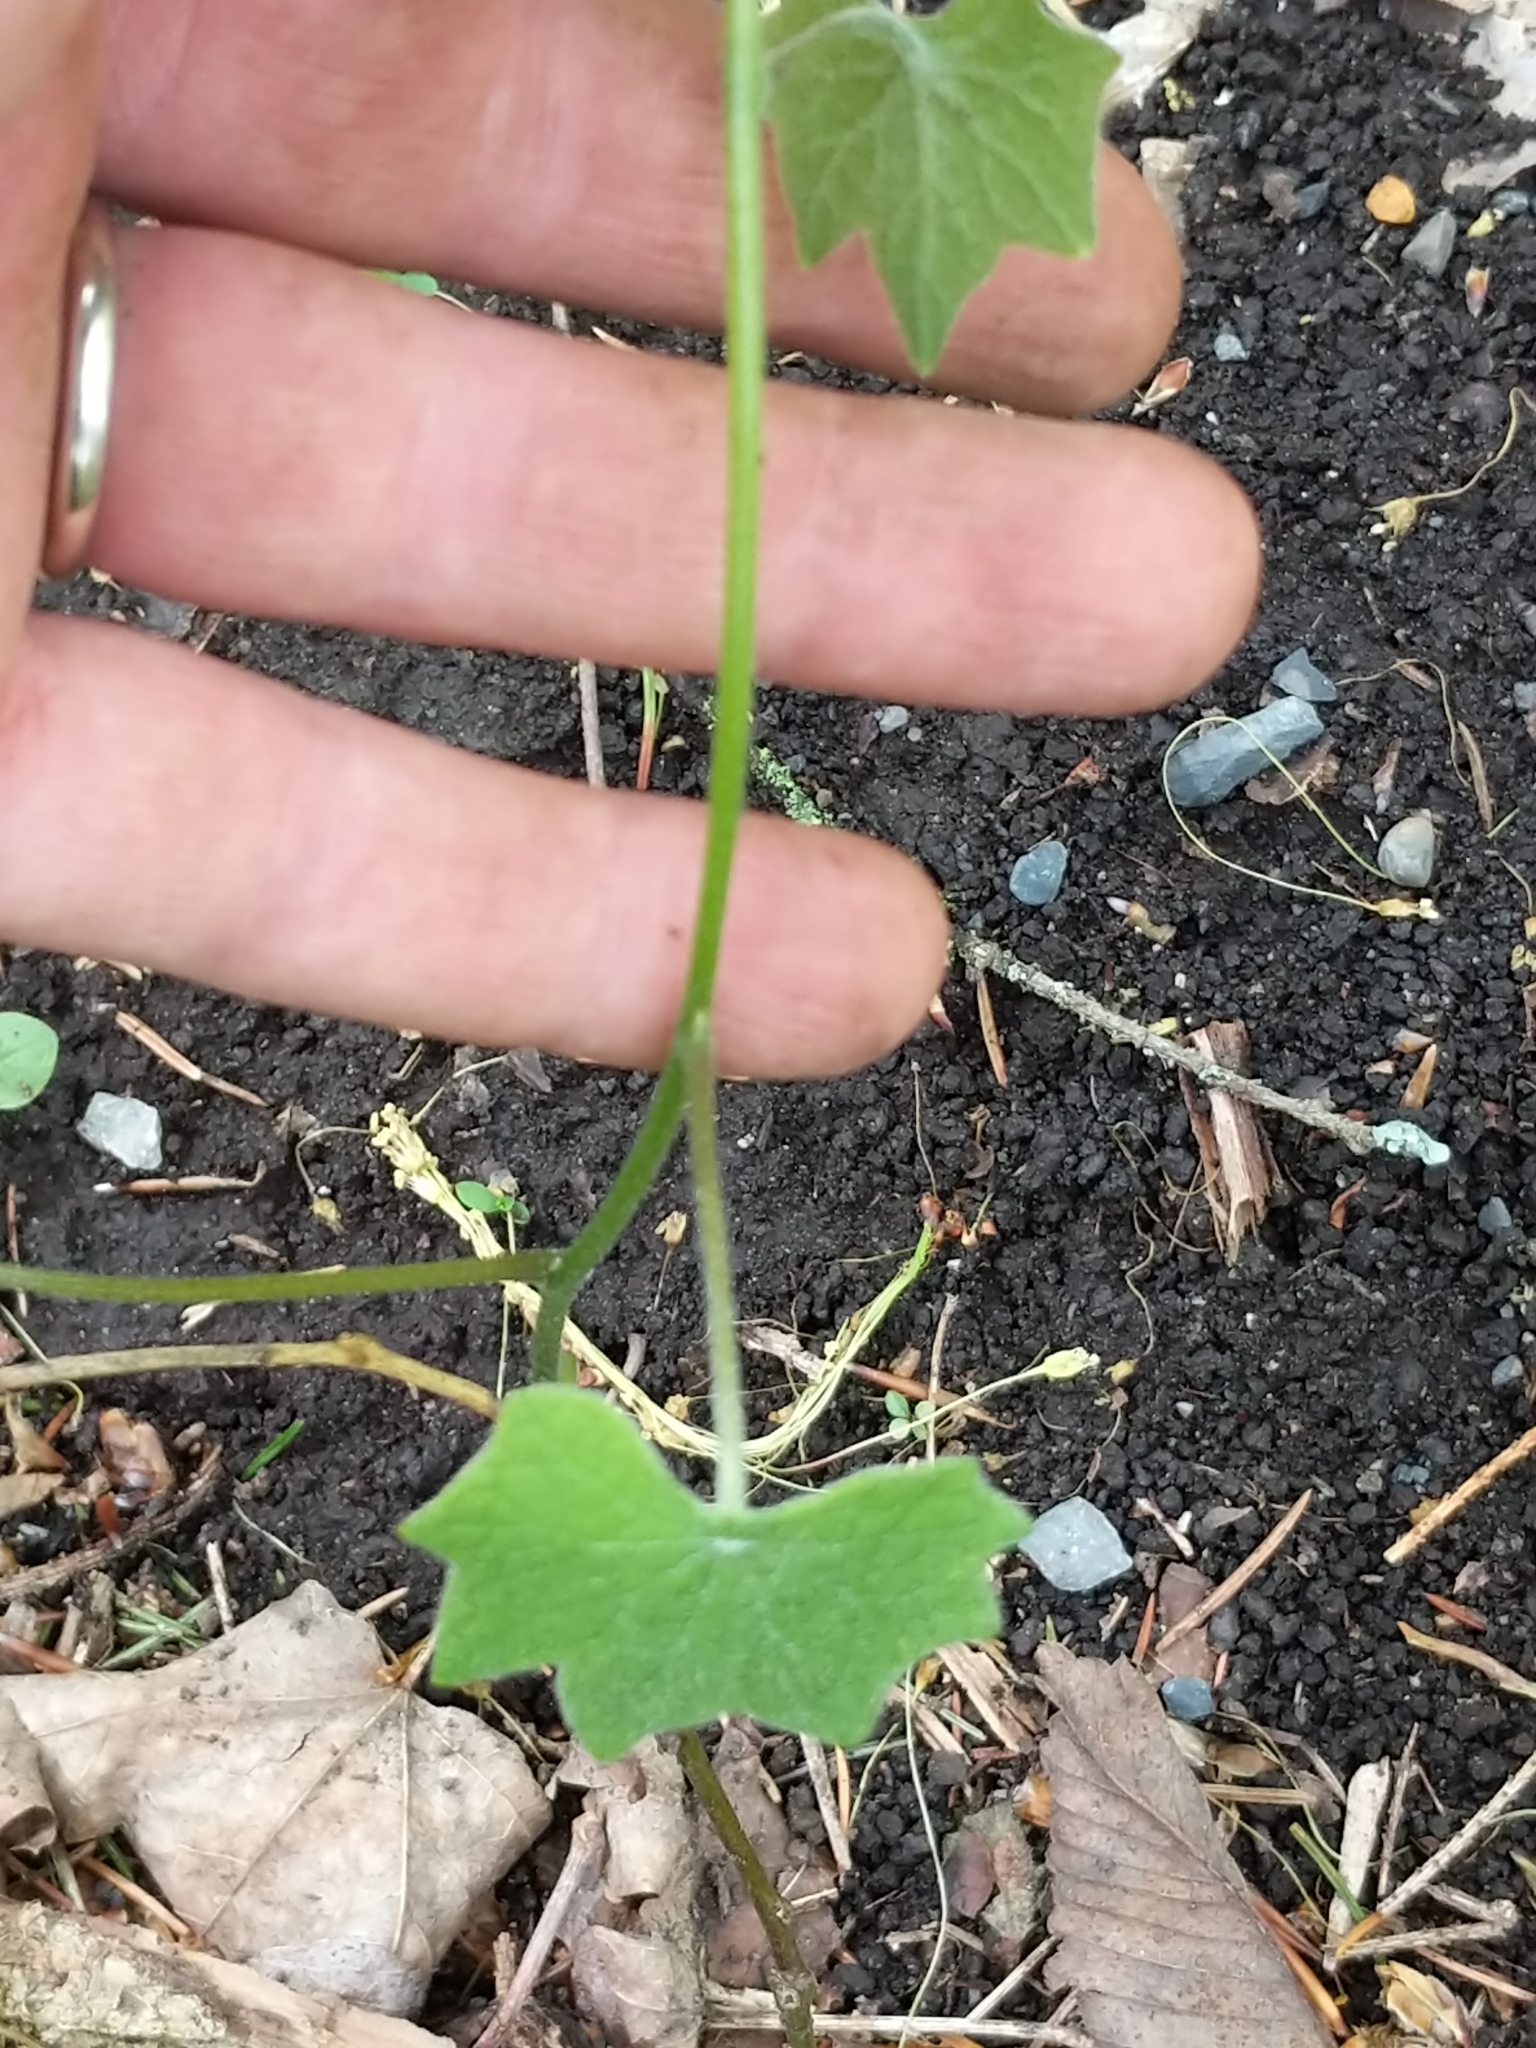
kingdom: Plantae
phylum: Tracheophyta
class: Magnoliopsida
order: Ranunculales
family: Menispermaceae
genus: Menispermum
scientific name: Menispermum canadense
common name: Moonseed
